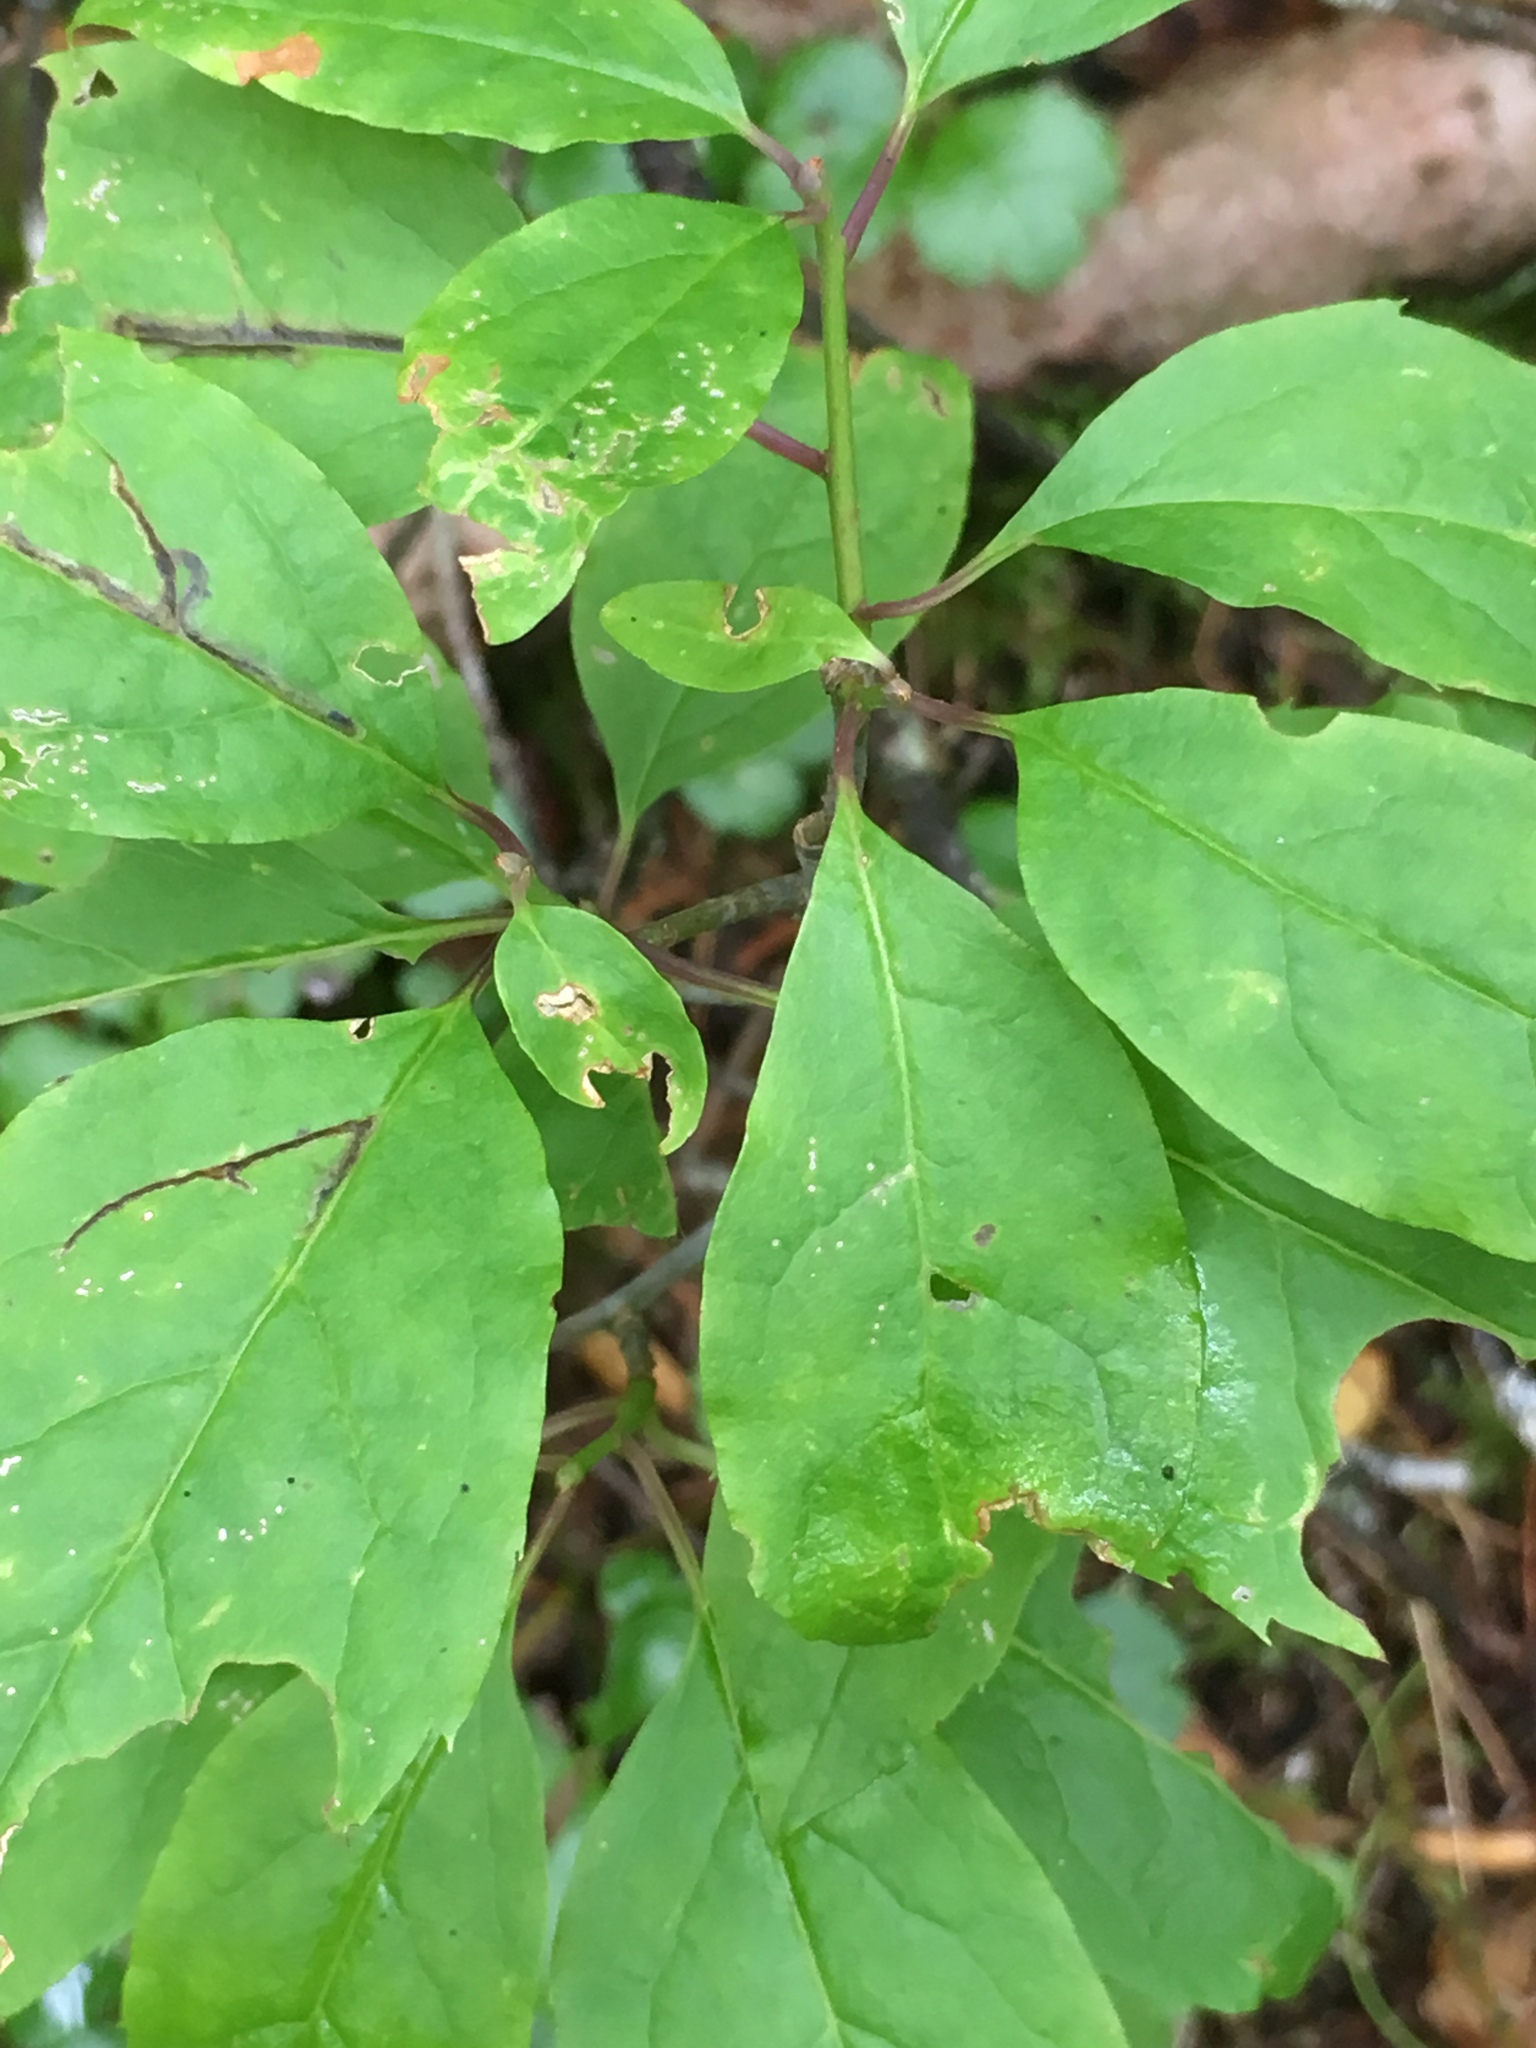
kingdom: Plantae
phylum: Tracheophyta
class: Magnoliopsida
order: Aquifoliales
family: Aquifoliaceae
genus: Ilex
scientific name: Ilex mucronata
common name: Catberry
